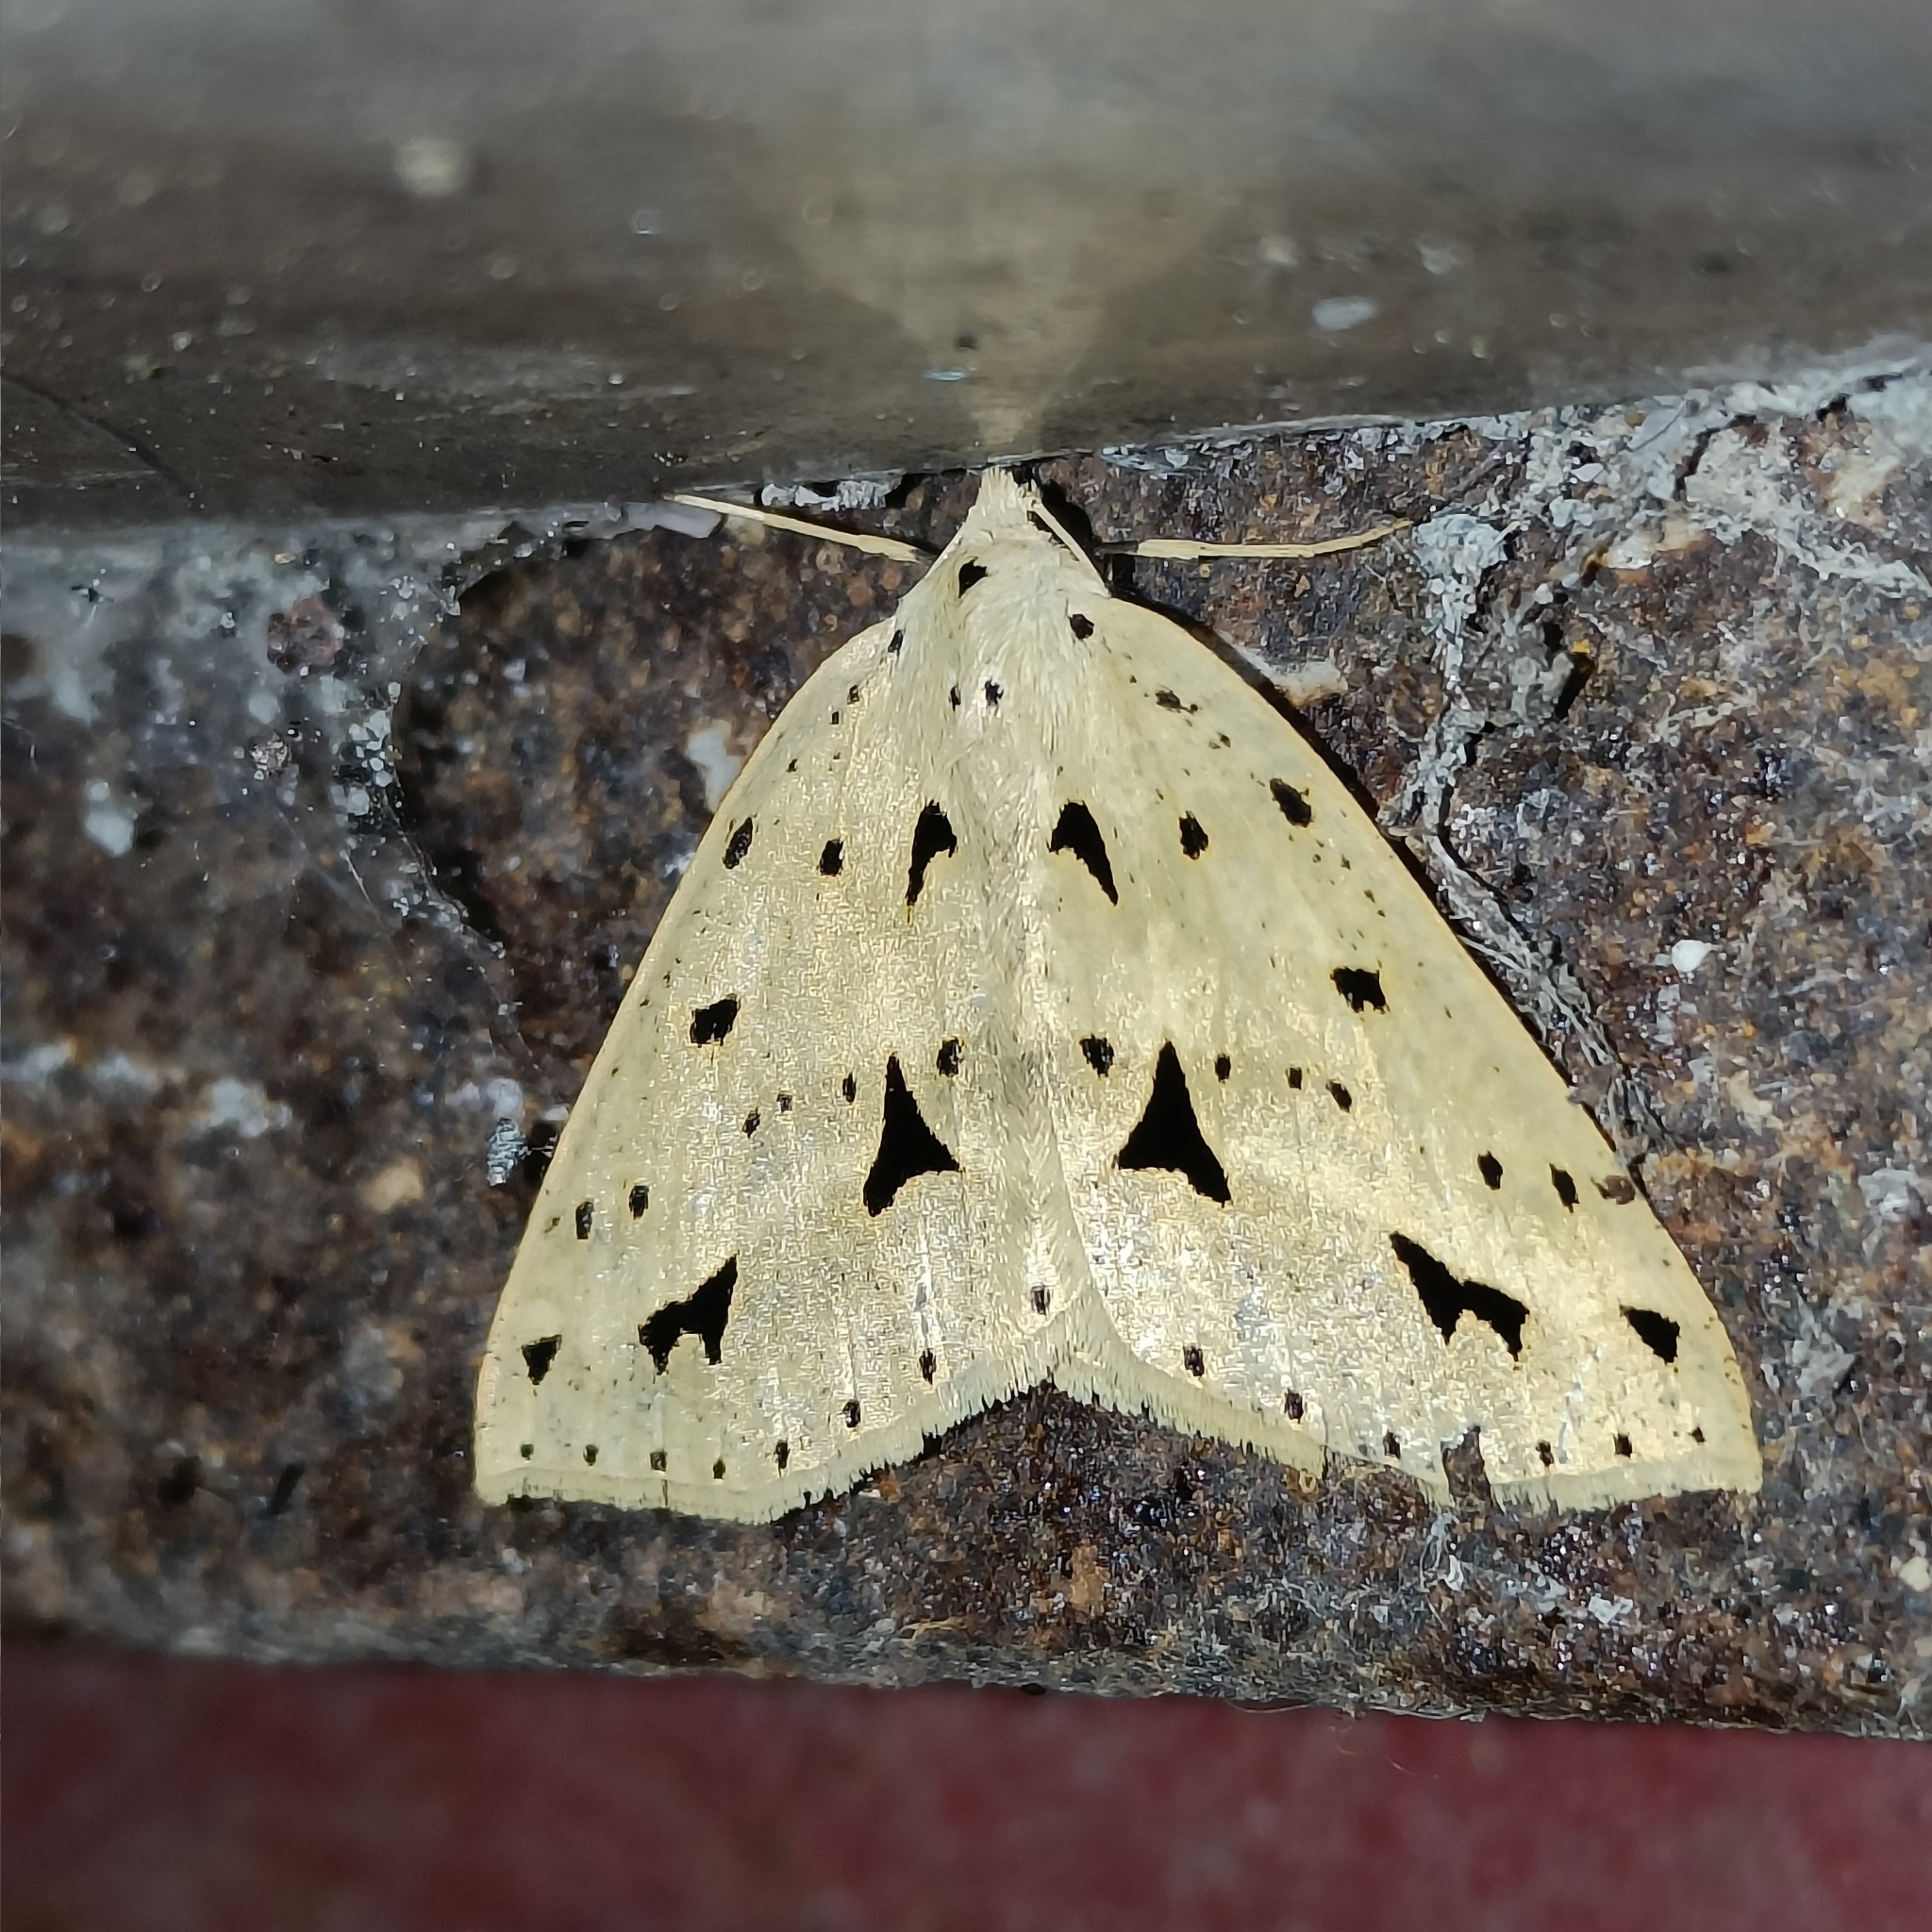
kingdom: Animalia
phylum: Arthropoda
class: Insecta
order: Lepidoptera
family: Geometridae
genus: Psyra
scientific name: Psyra cuneata
